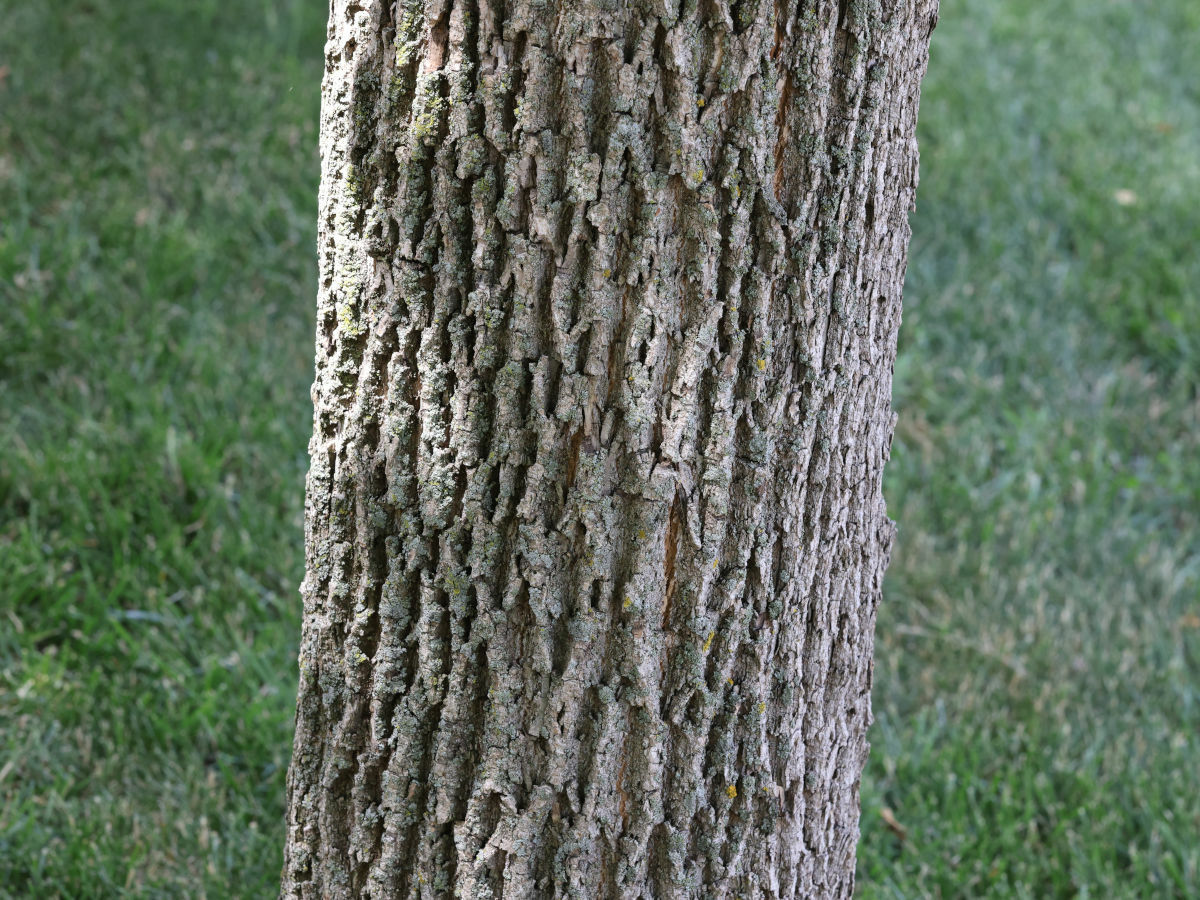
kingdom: Plantae
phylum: Tracheophyta
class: Magnoliopsida
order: Lamiales
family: Oleaceae
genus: Fraxinus
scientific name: Fraxinus pennsylvanica
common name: Green ash
